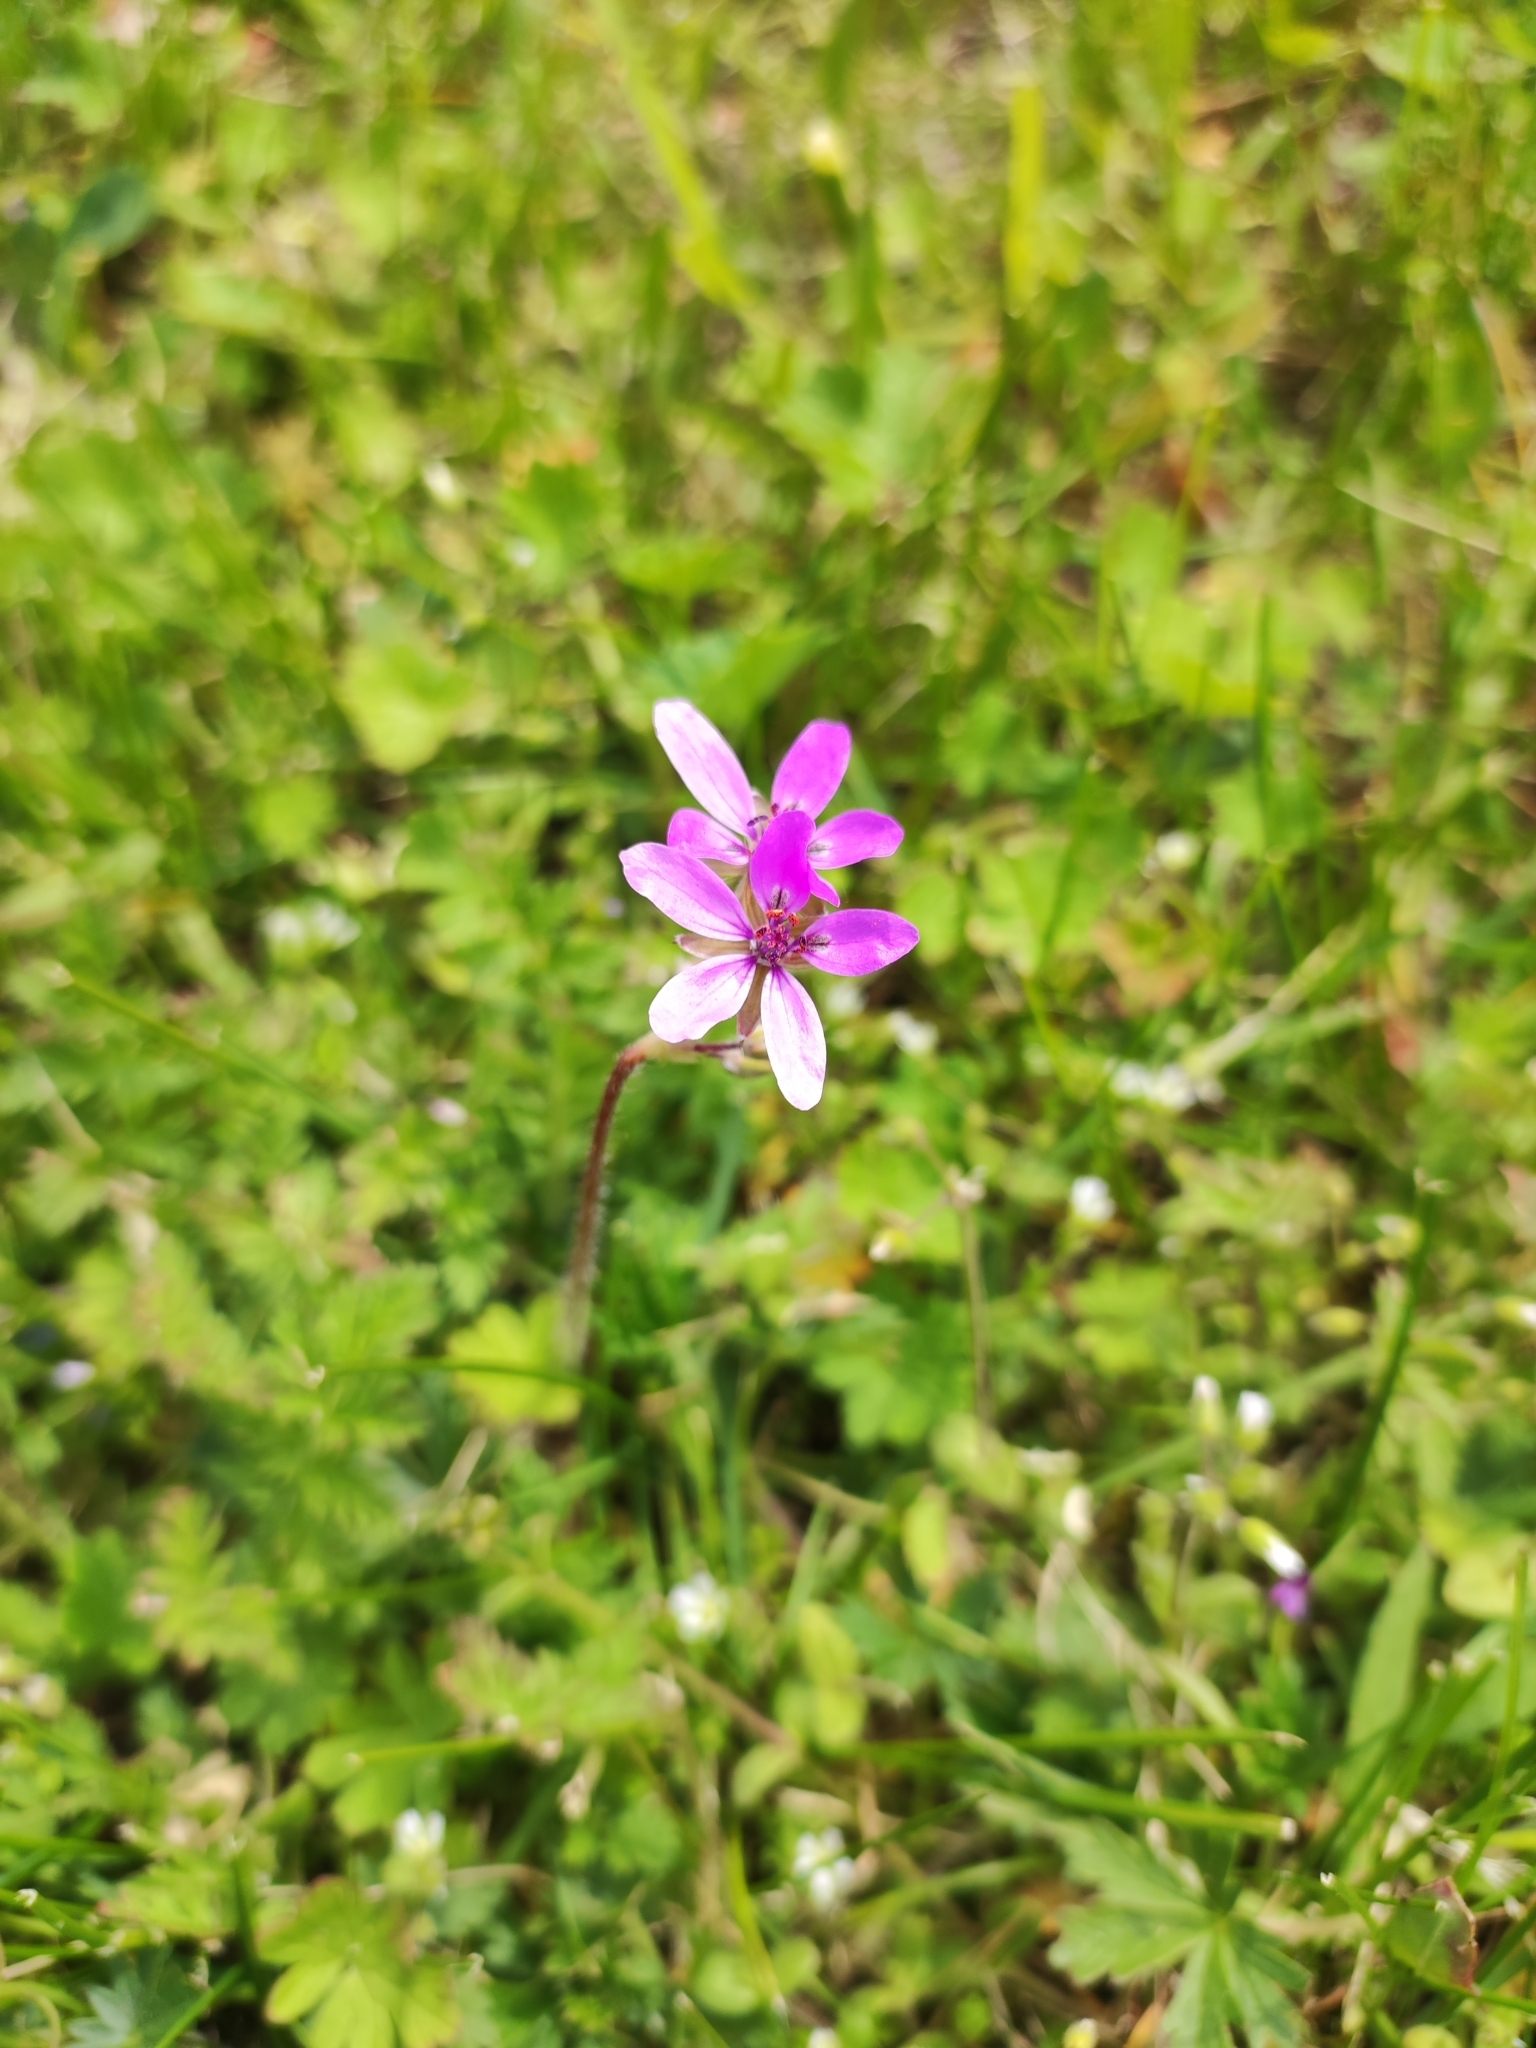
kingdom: Plantae
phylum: Tracheophyta
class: Magnoliopsida
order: Geraniales
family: Geraniaceae
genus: Erodium
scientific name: Erodium cicutarium
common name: Common stork's-bill
